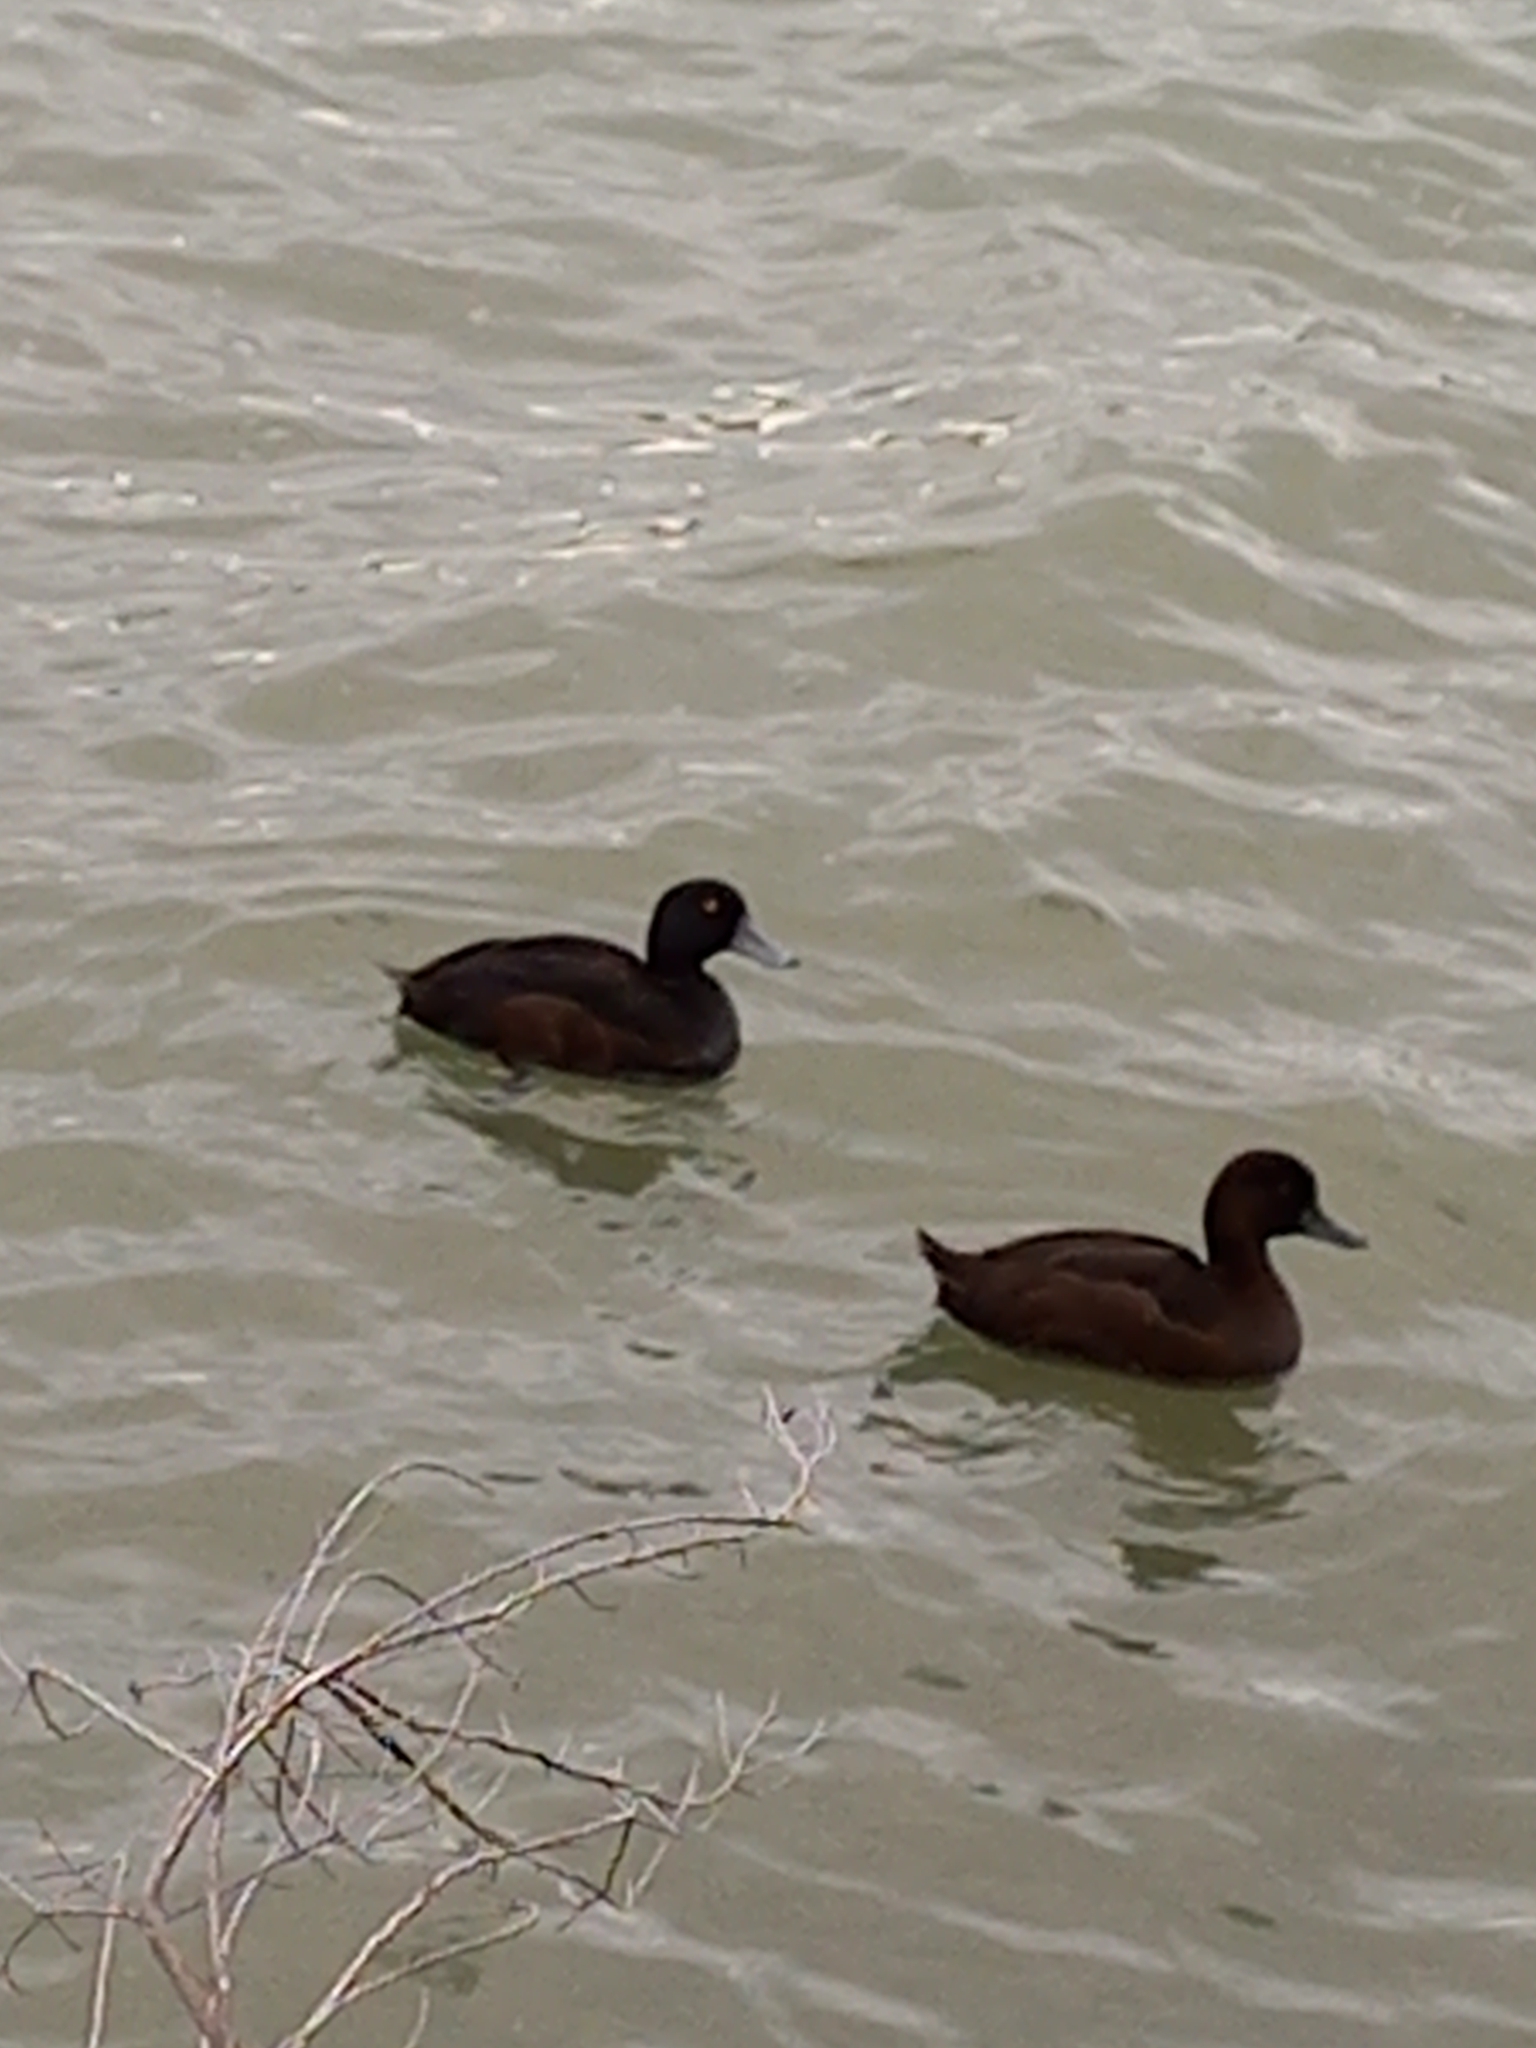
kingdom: Animalia
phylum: Chordata
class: Aves
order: Anseriformes
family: Anatidae
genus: Aythya
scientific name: Aythya novaeseelandiae
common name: New zealand scaup
